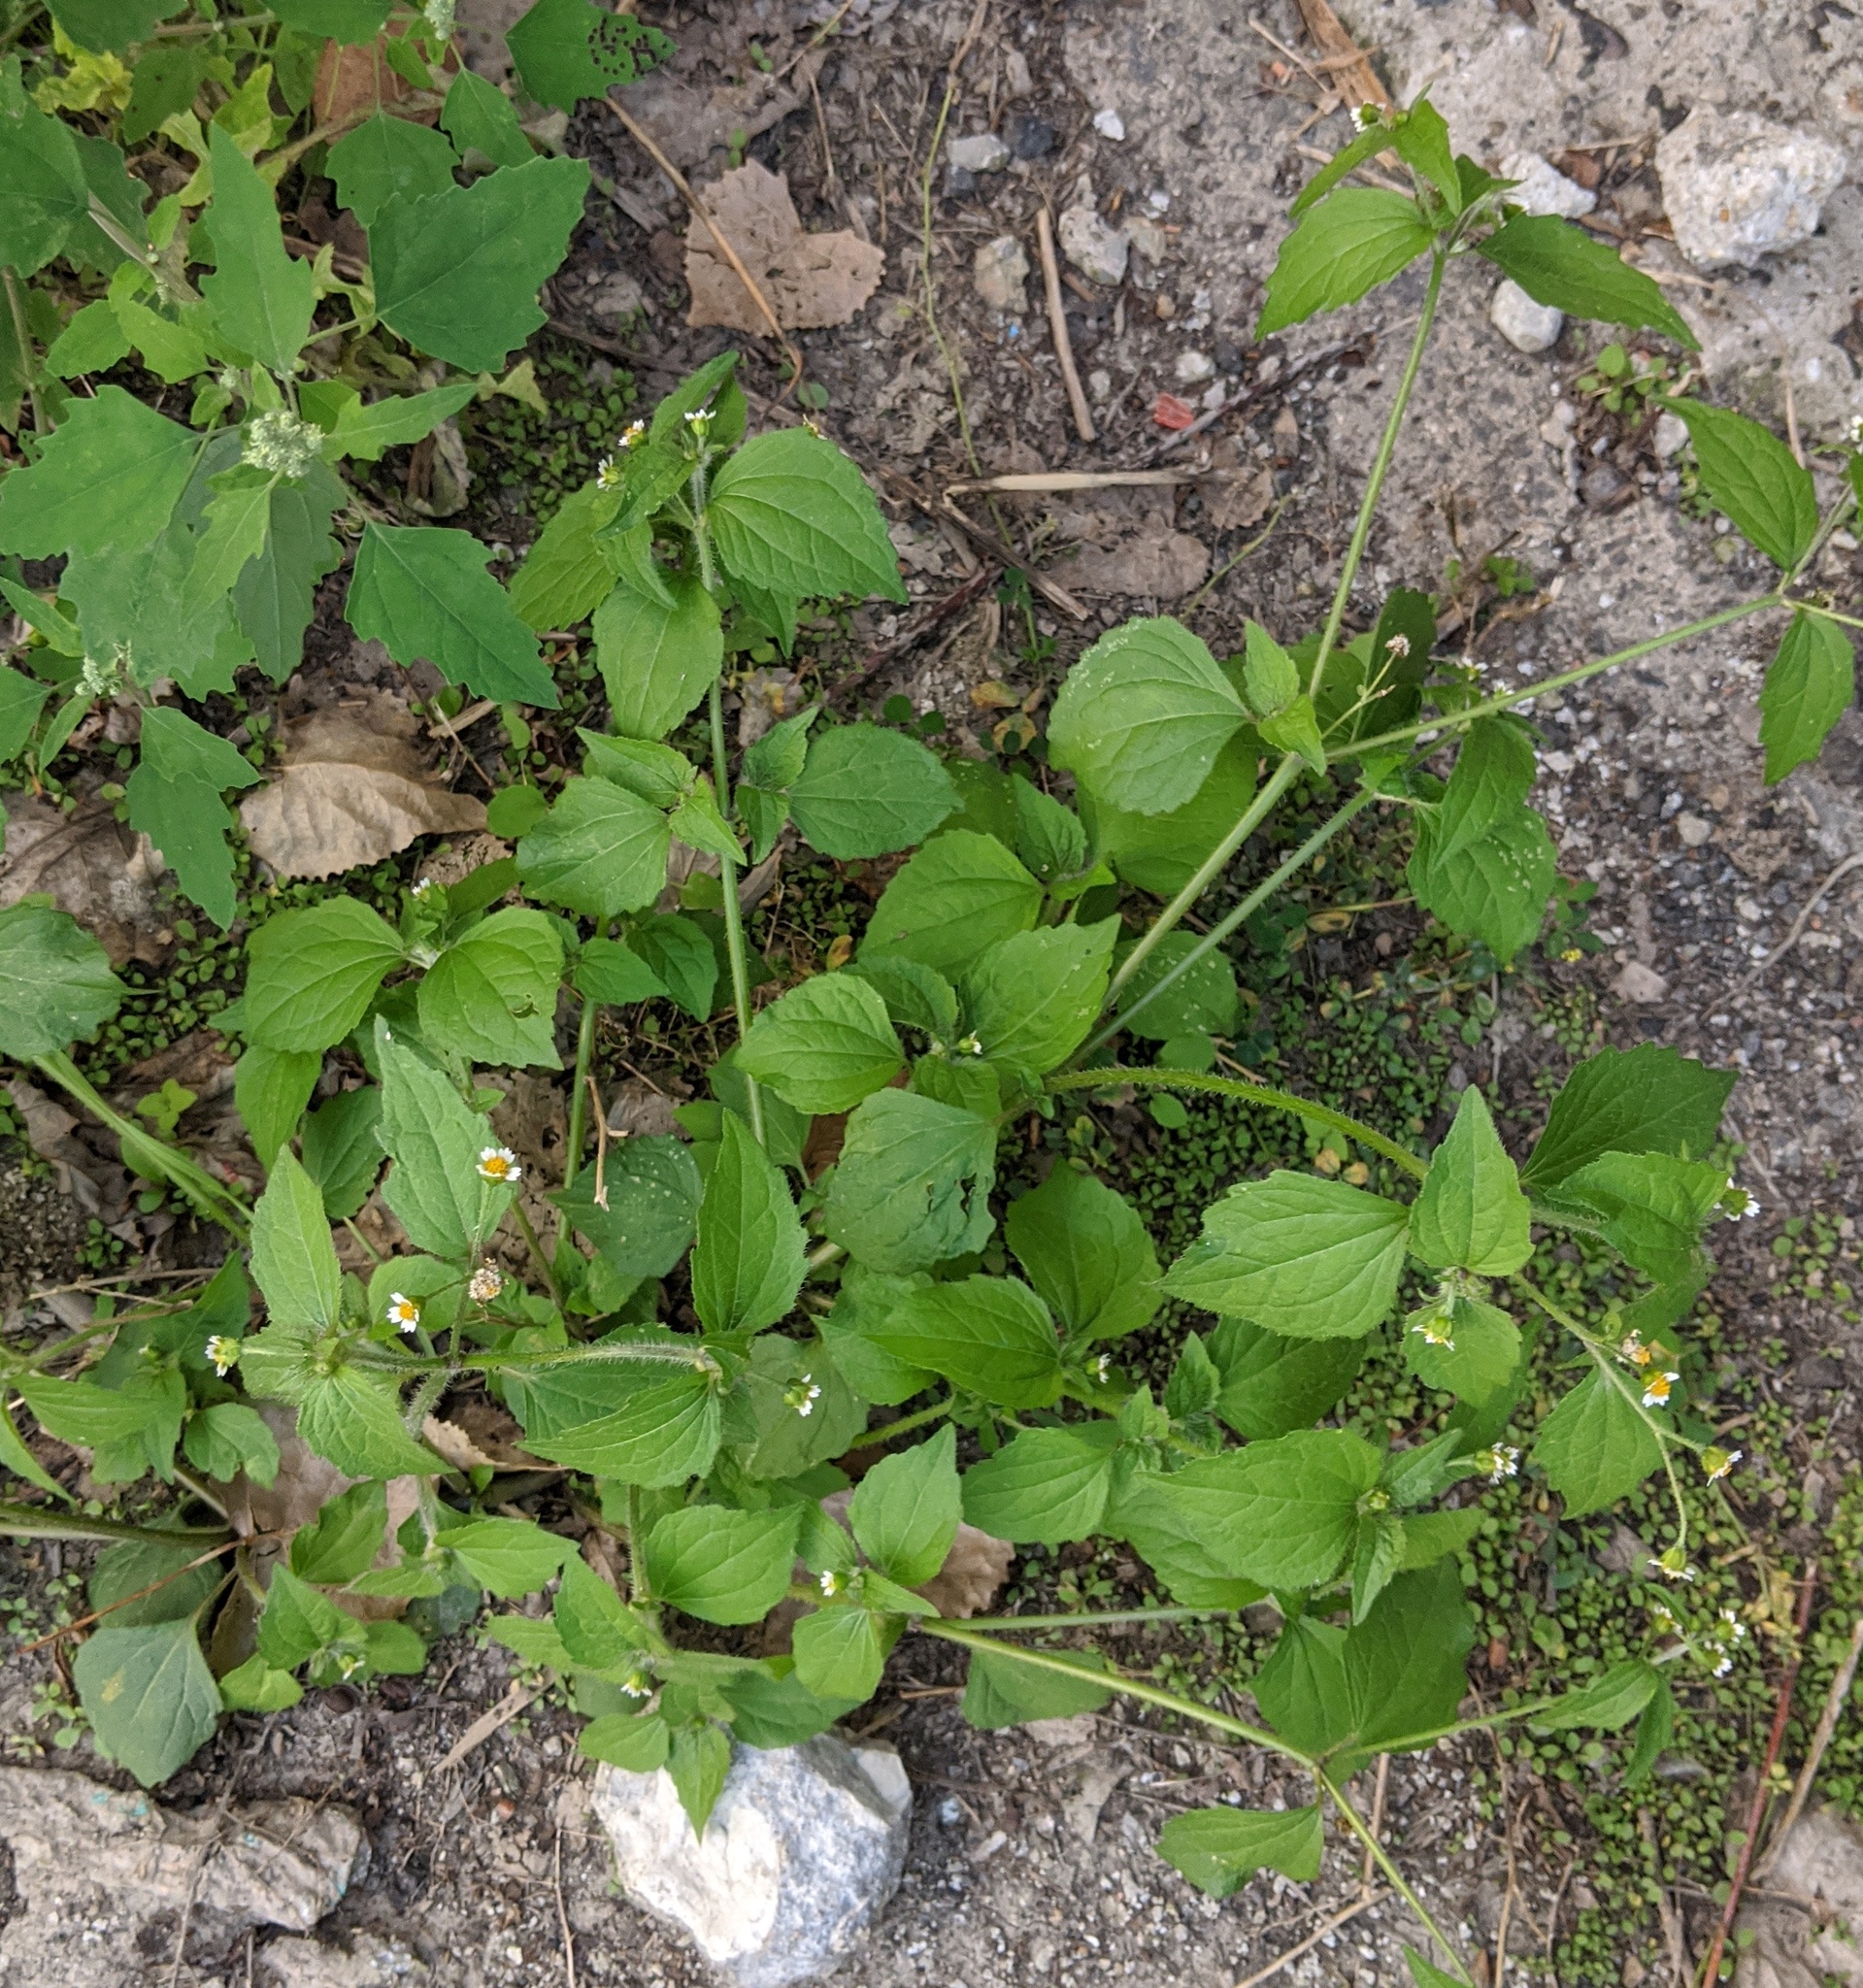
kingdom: Plantae
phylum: Tracheophyta
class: Magnoliopsida
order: Asterales
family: Asteraceae
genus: Galinsoga
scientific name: Galinsoga quadriradiata
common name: Shaggy soldier
